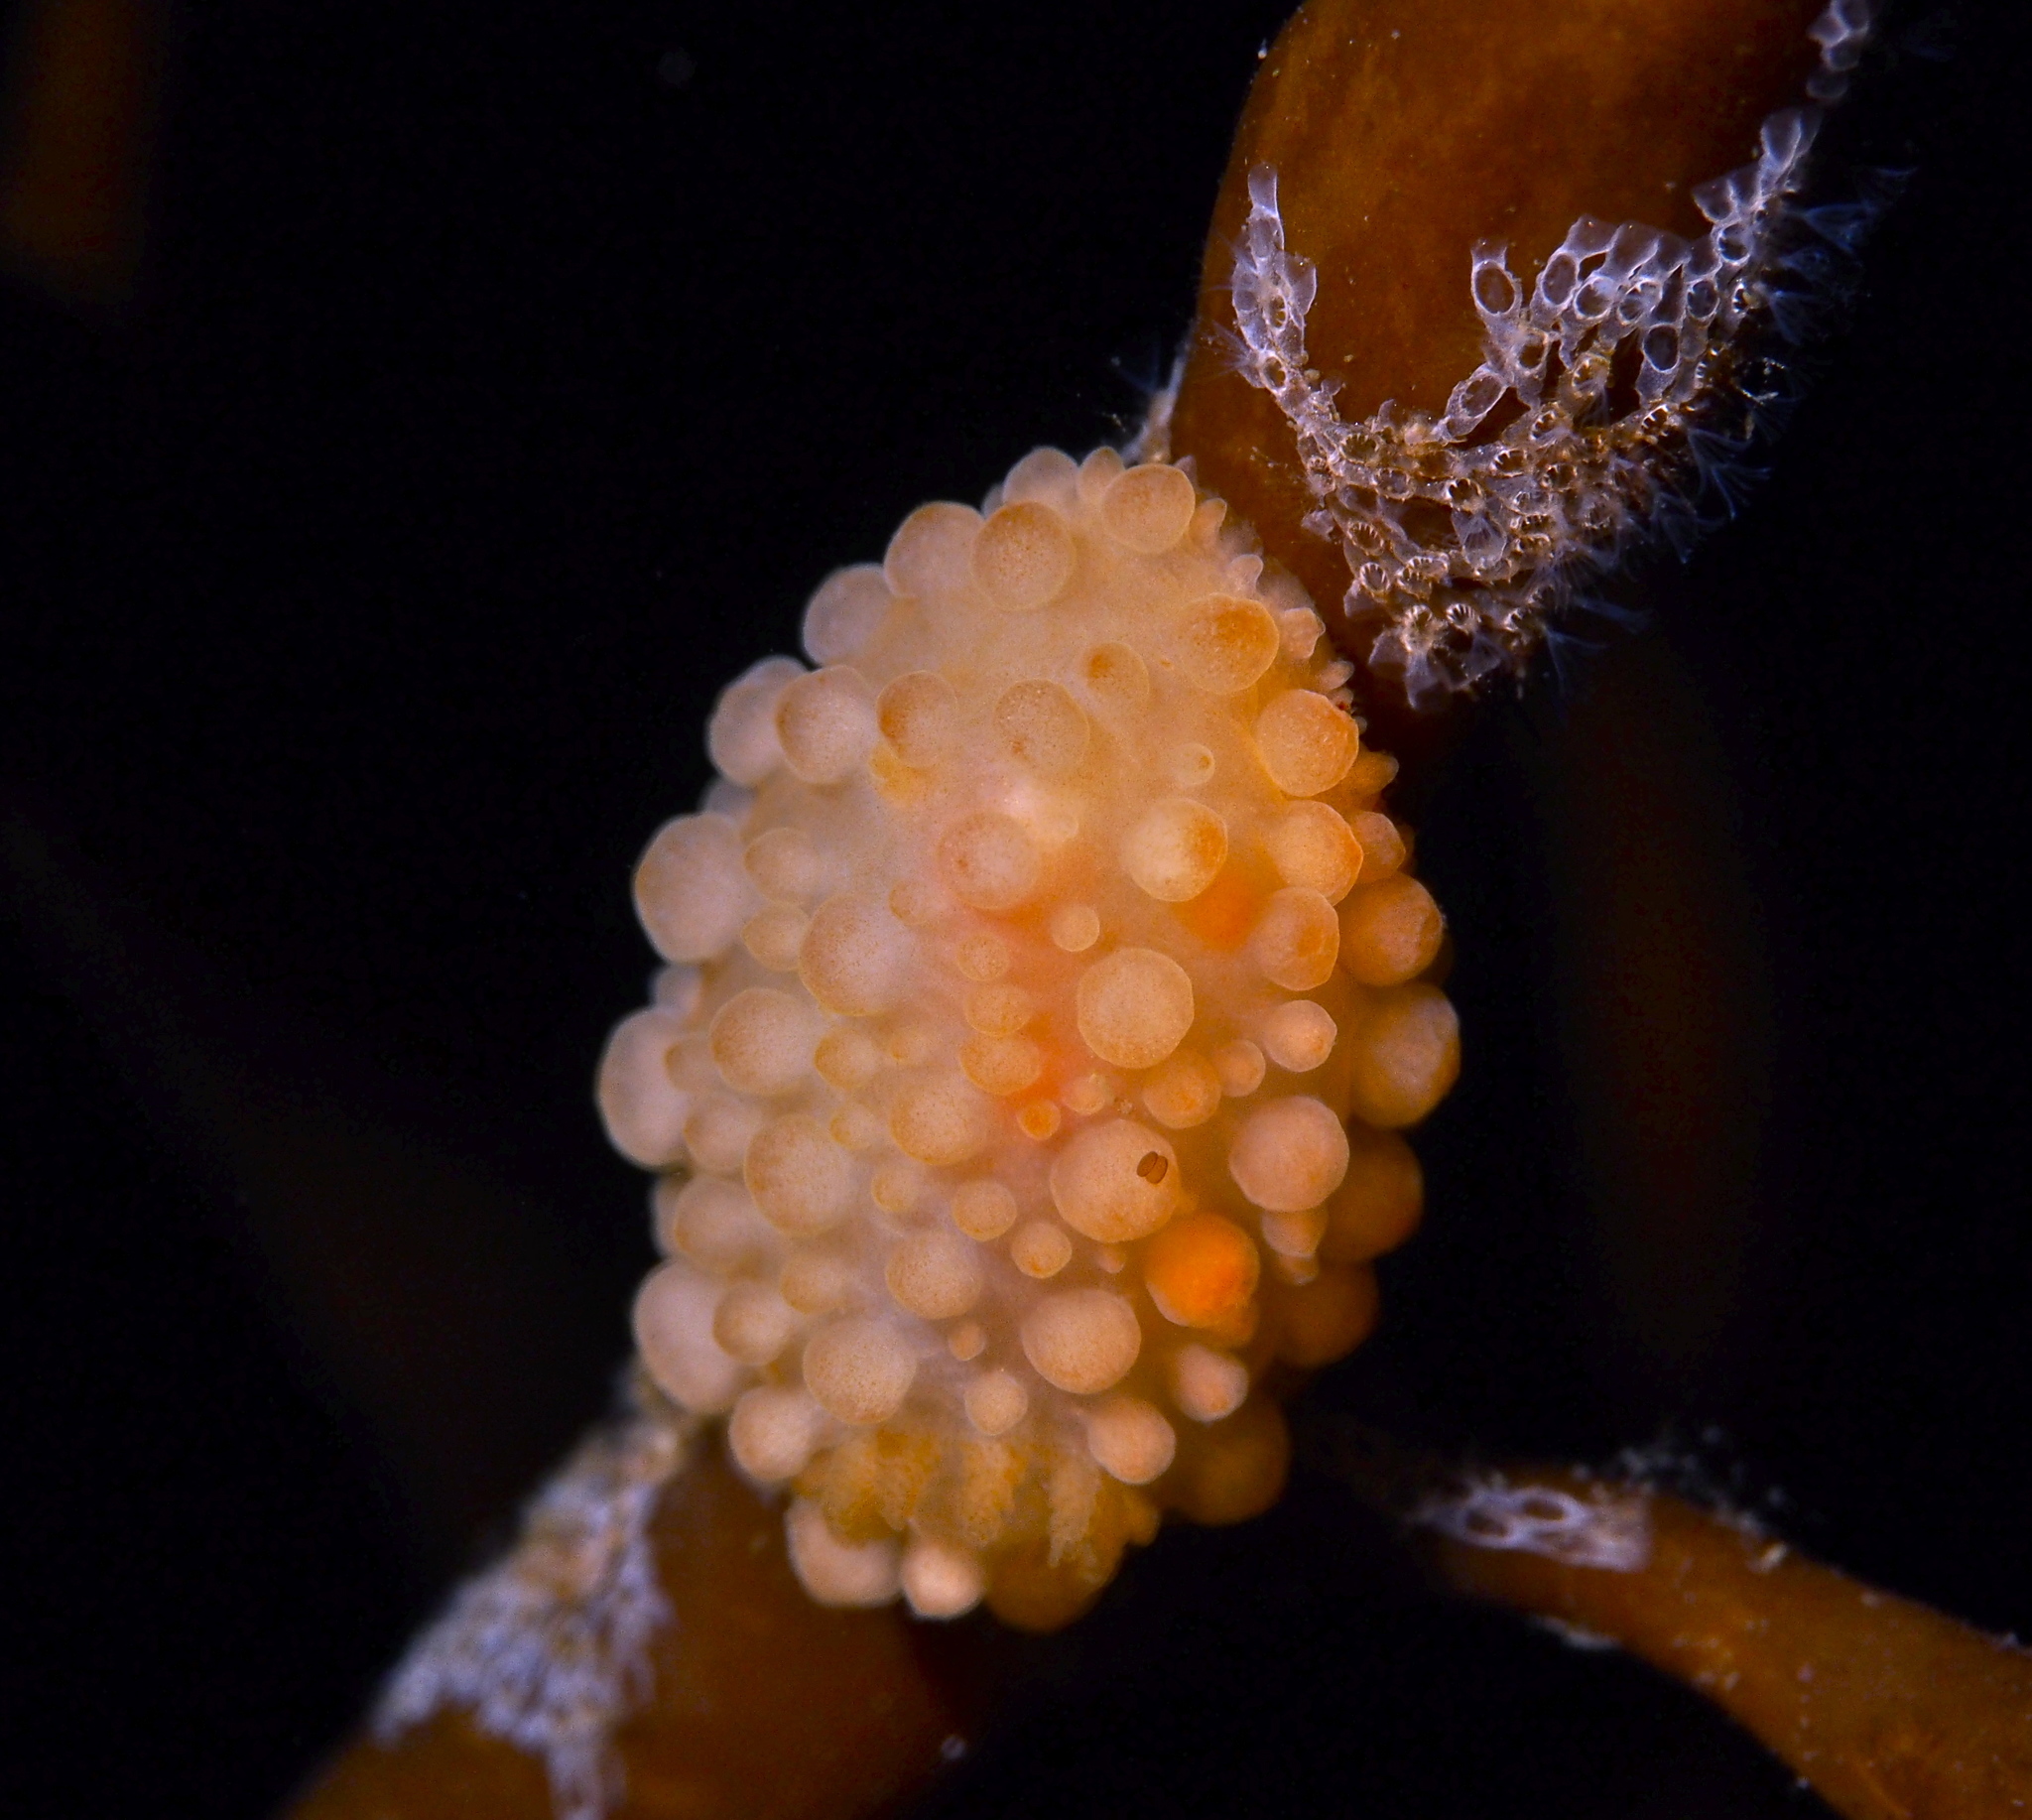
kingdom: Animalia
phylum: Mollusca
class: Gastropoda
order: Nudibranchia
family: Onchidorididae
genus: Adalaria
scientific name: Adalaria loveni
